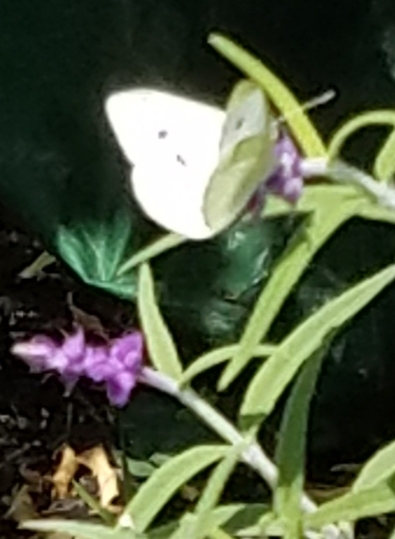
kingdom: Animalia
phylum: Arthropoda
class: Insecta
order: Lepidoptera
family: Pieridae
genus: Pieris
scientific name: Pieris rapae
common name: Small white
